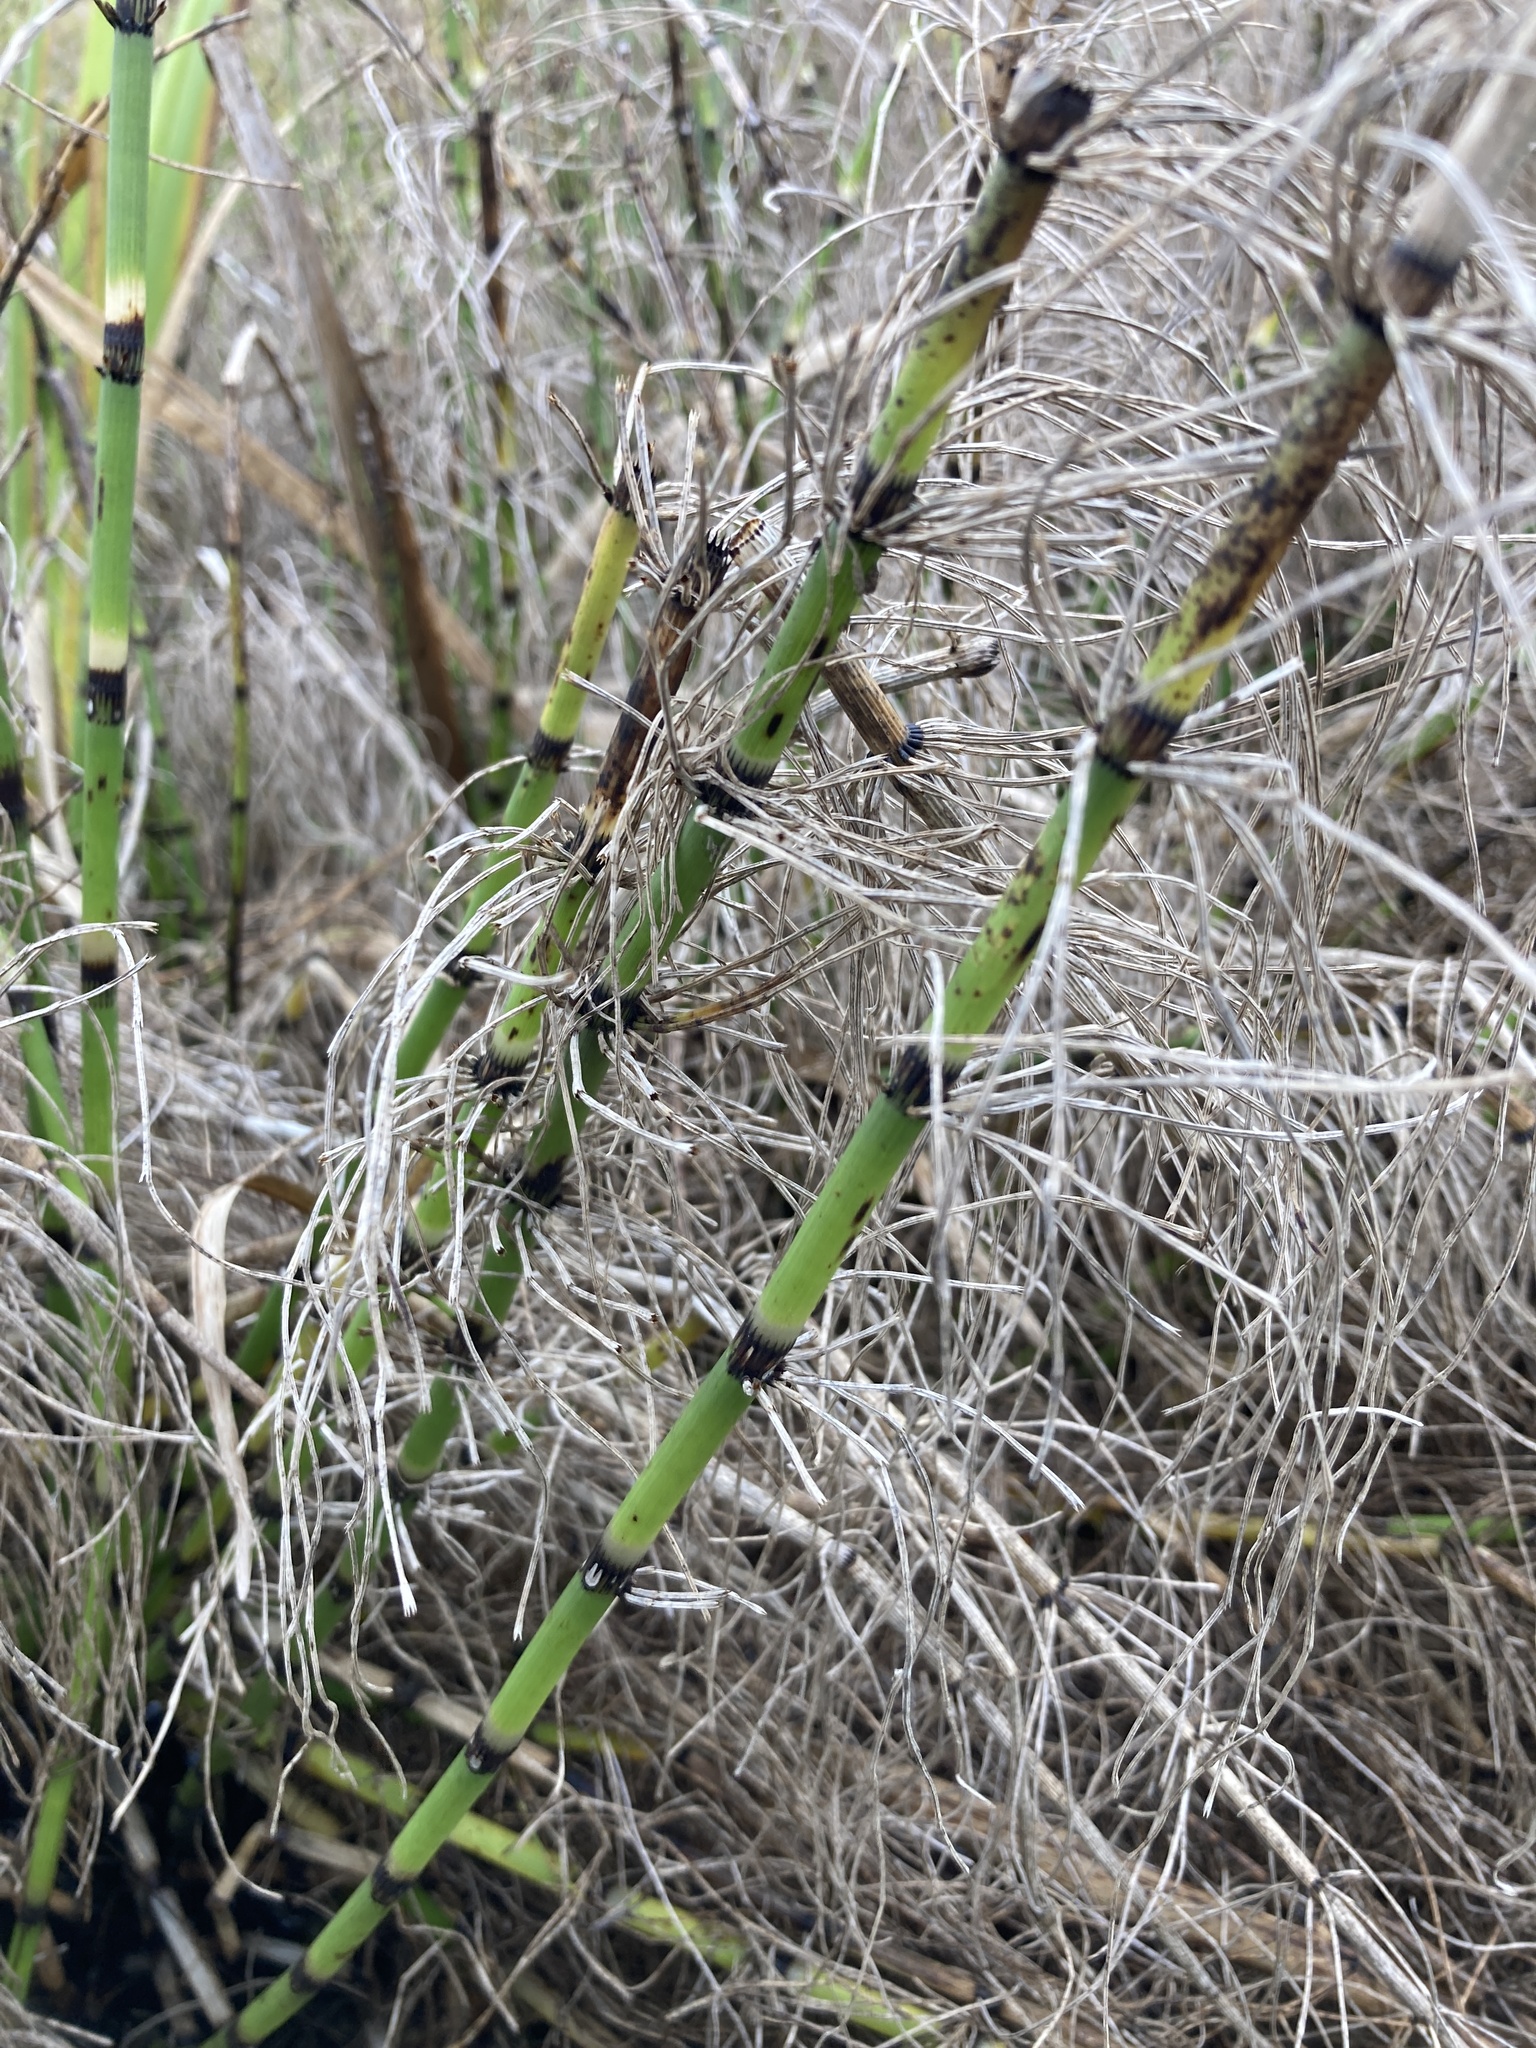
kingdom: Plantae
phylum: Tracheophyta
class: Polypodiopsida
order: Equisetales
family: Equisetaceae
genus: Equisetum
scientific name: Equisetum fluviatile
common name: Water horsetail
